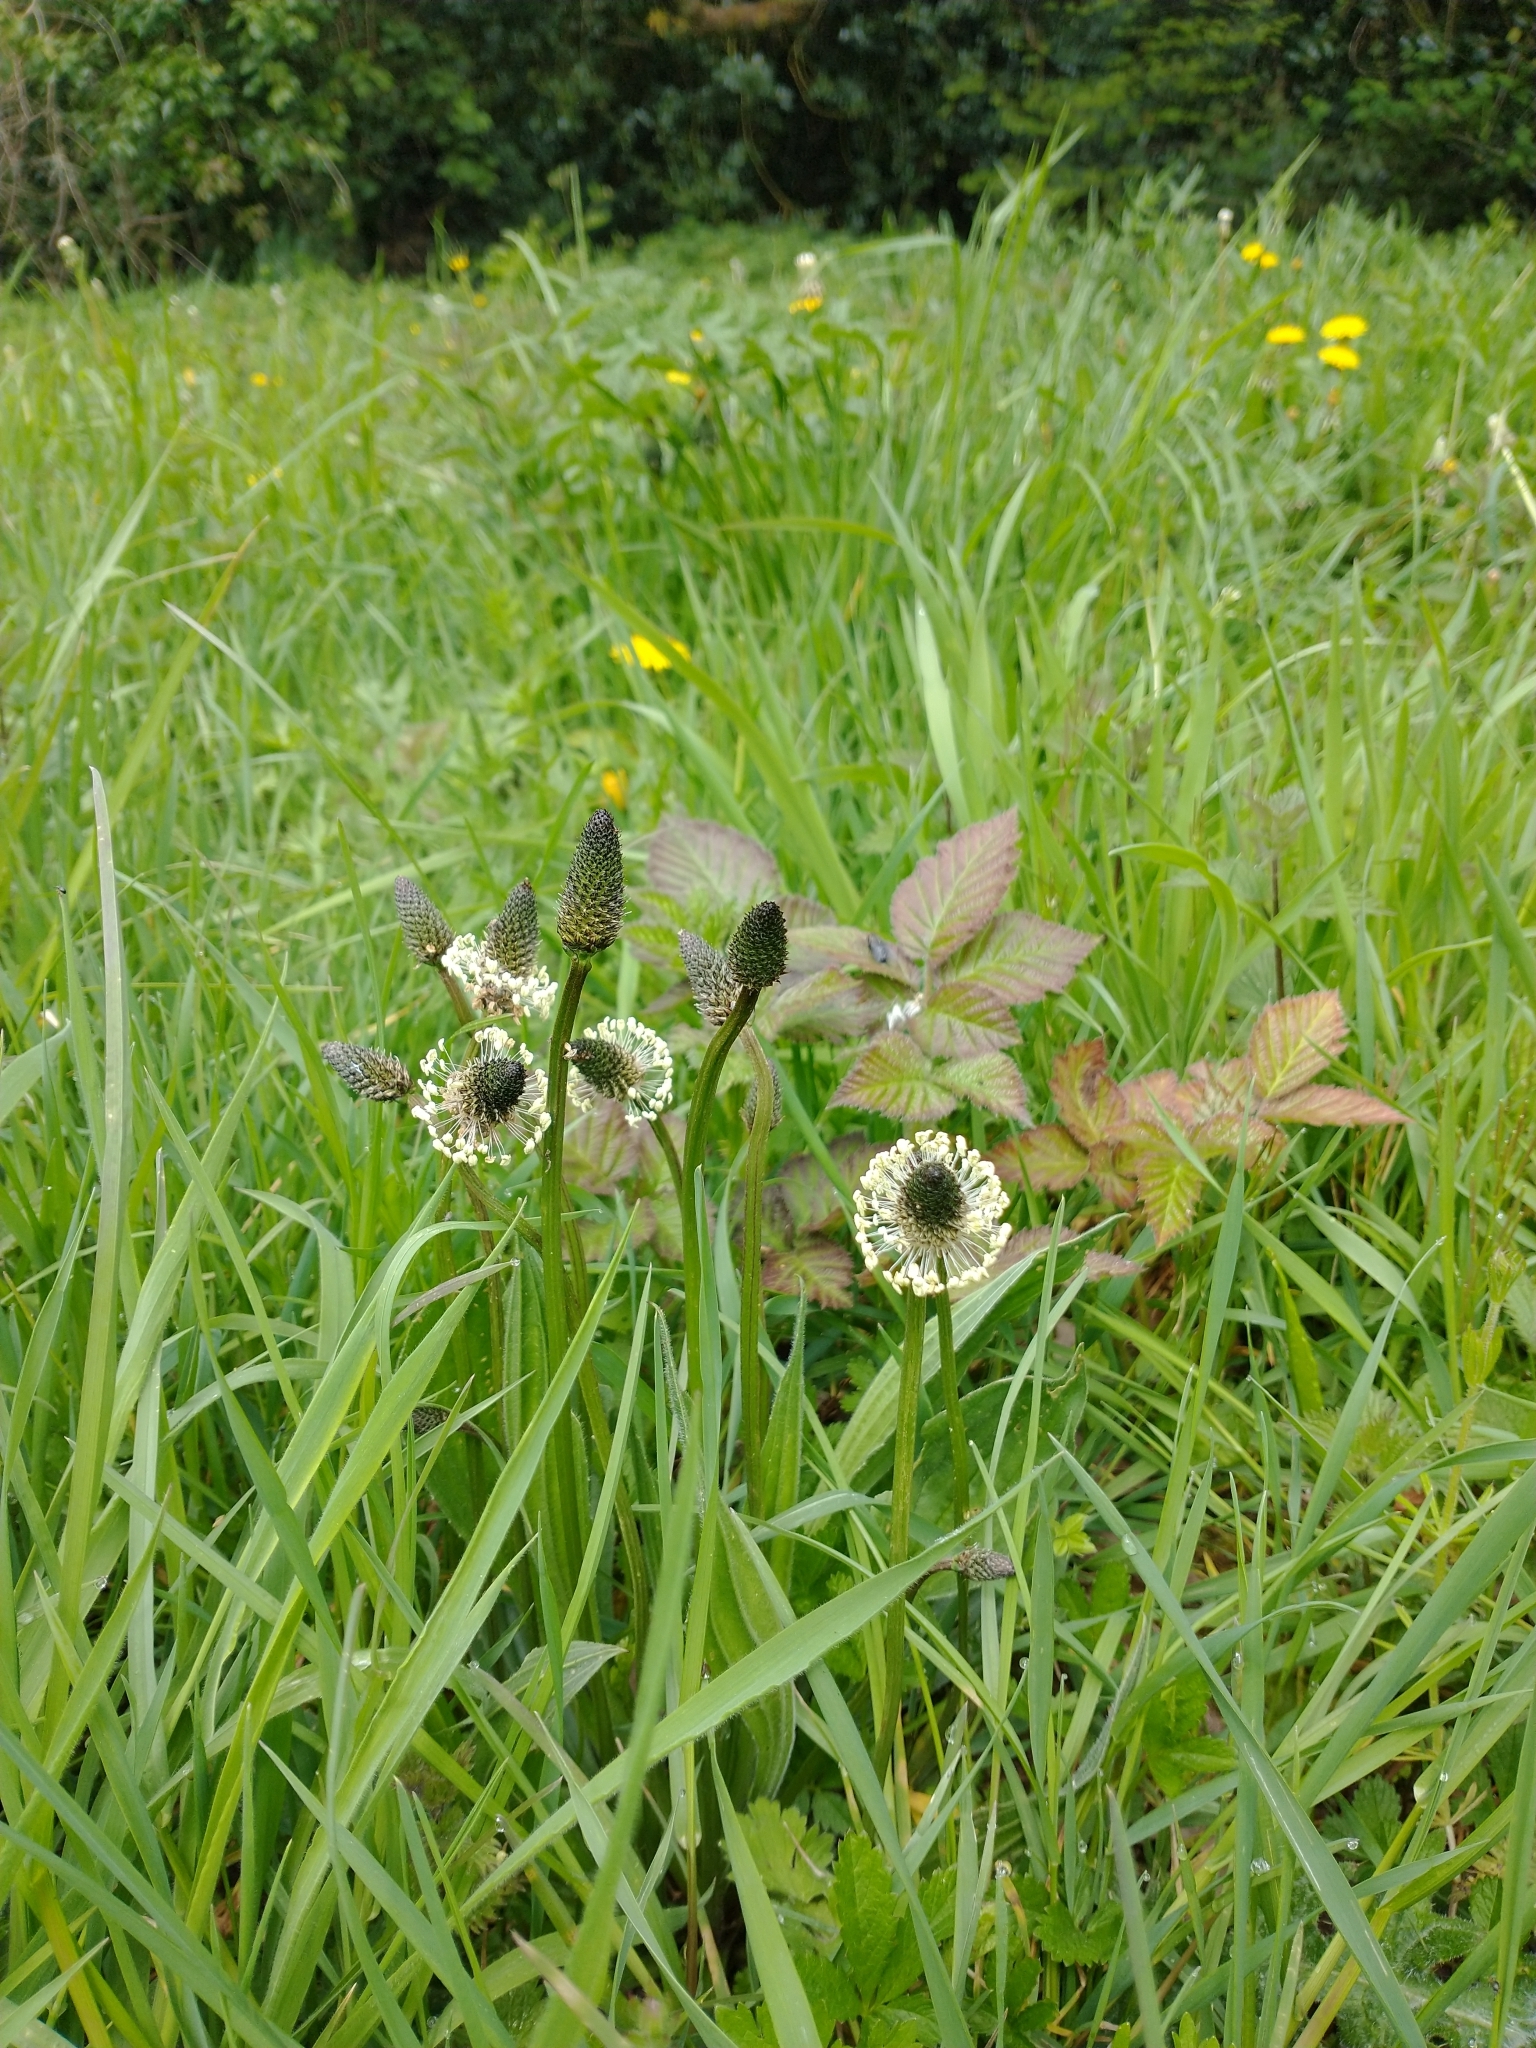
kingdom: Plantae
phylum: Tracheophyta
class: Magnoliopsida
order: Lamiales
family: Plantaginaceae
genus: Plantago
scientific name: Plantago lanceolata
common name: Ribwort plantain
